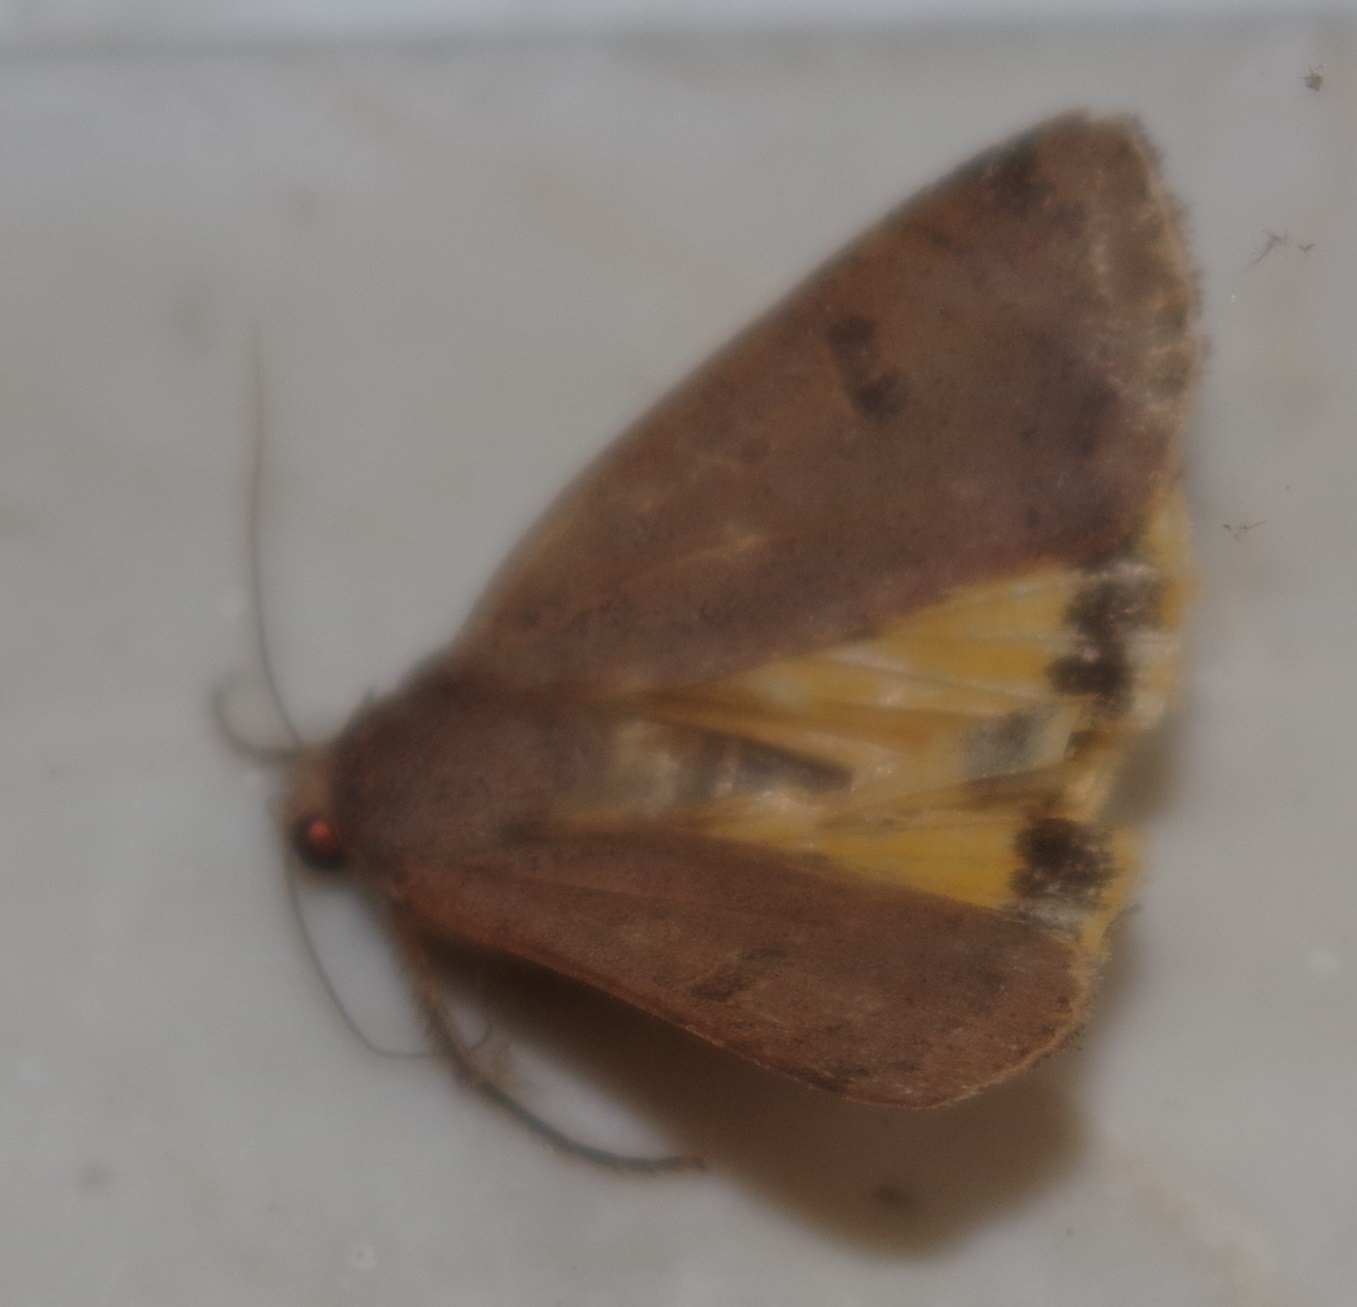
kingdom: Animalia
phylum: Arthropoda
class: Insecta
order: Lepidoptera
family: Noctuidae
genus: Noctua
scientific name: Noctua comes
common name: Lesser yellow underwing
